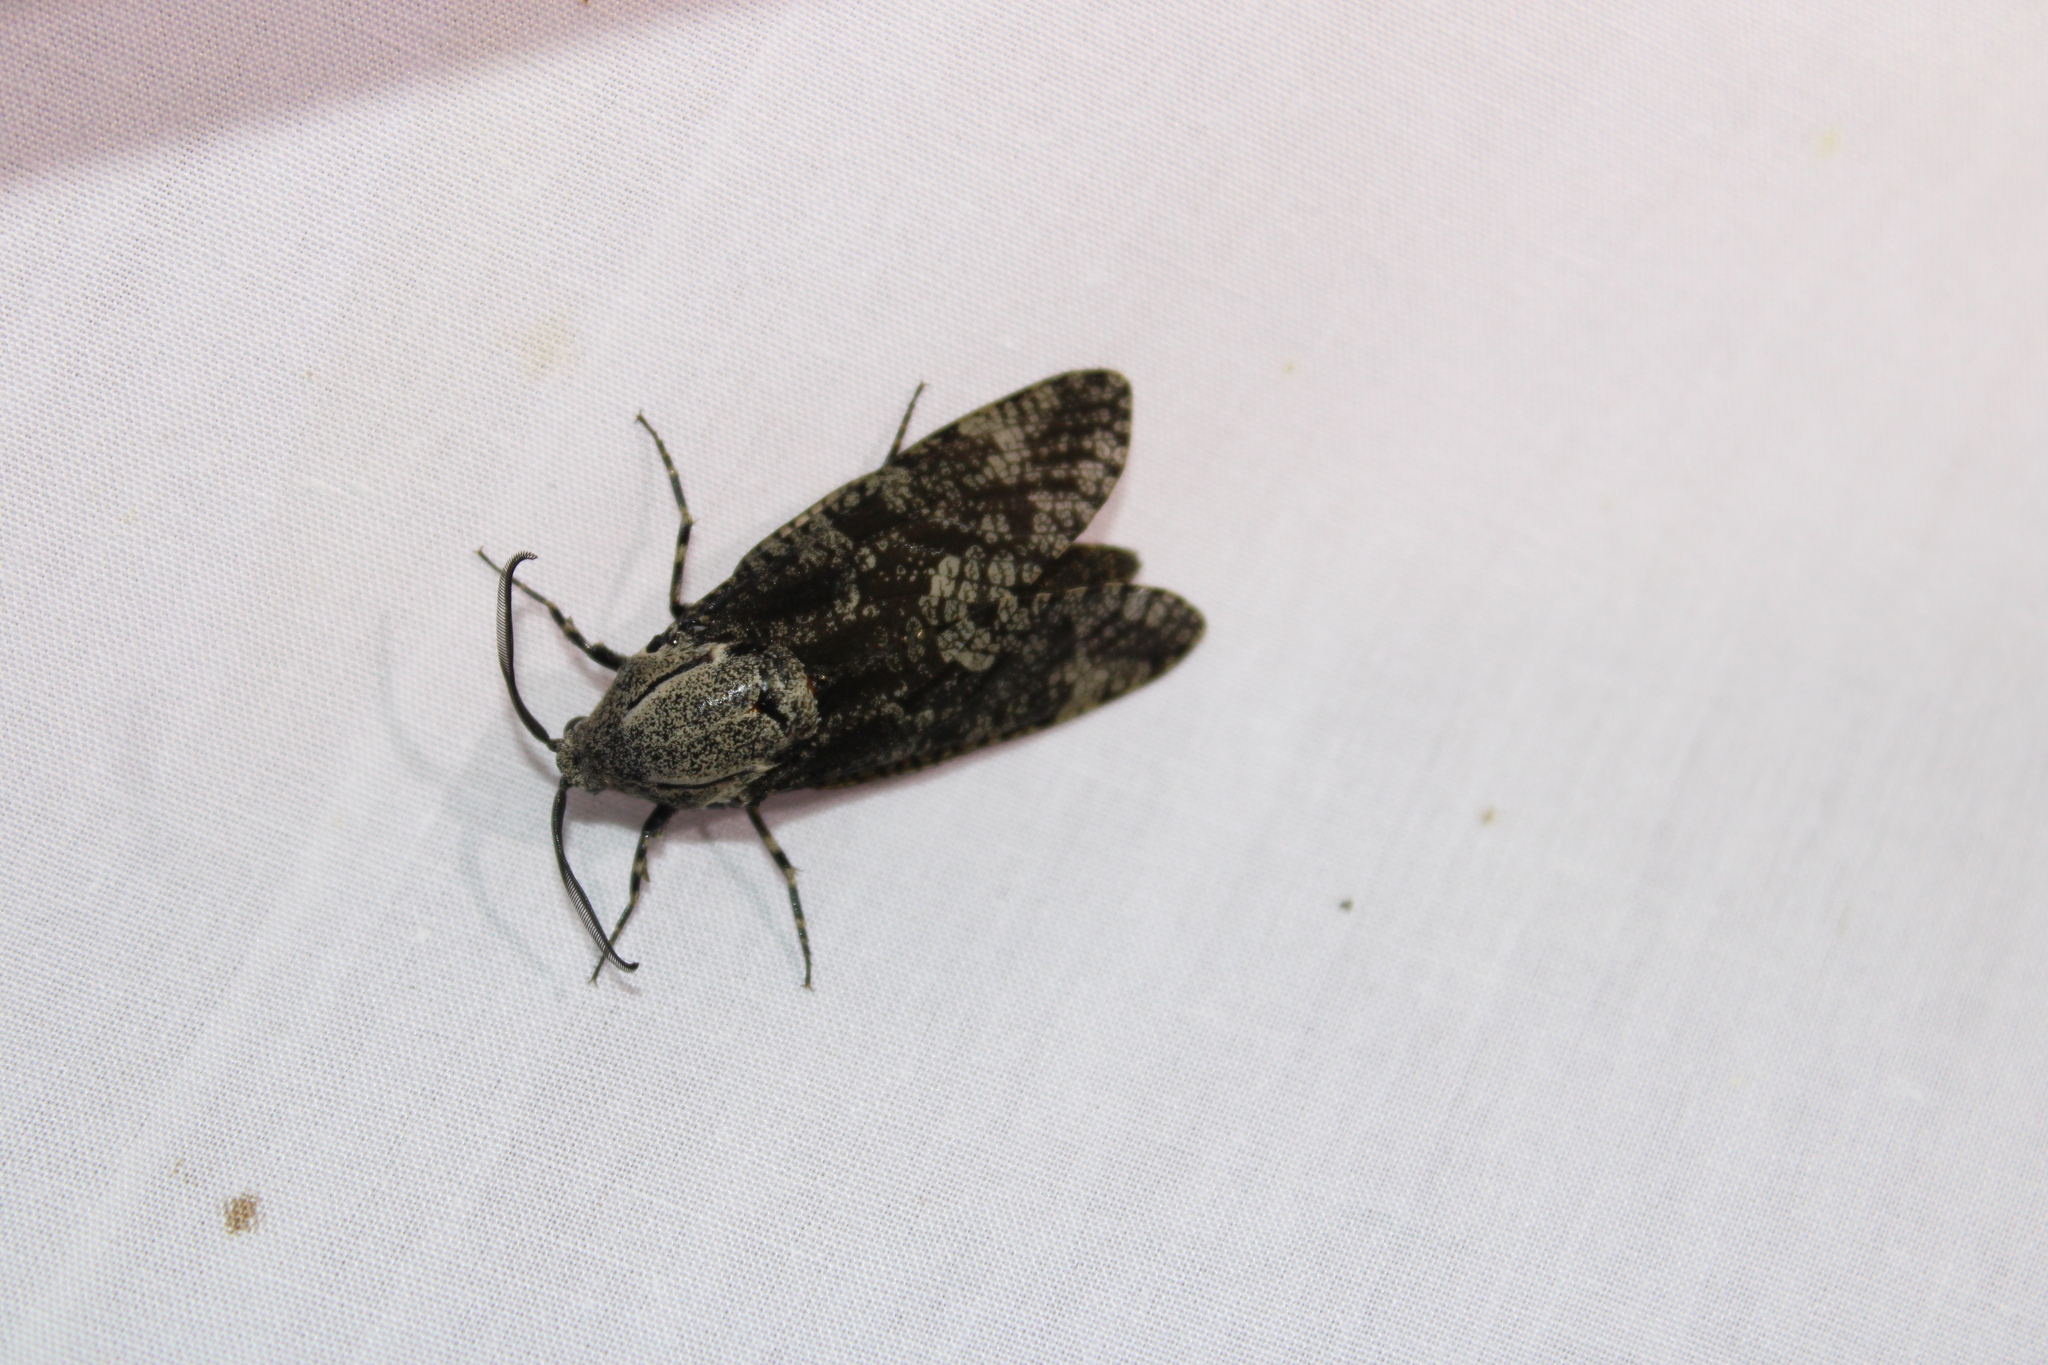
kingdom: Animalia
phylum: Arthropoda
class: Insecta
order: Lepidoptera
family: Cossidae
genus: Prionoxystus
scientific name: Prionoxystus robiniae
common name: Carpenterworm
